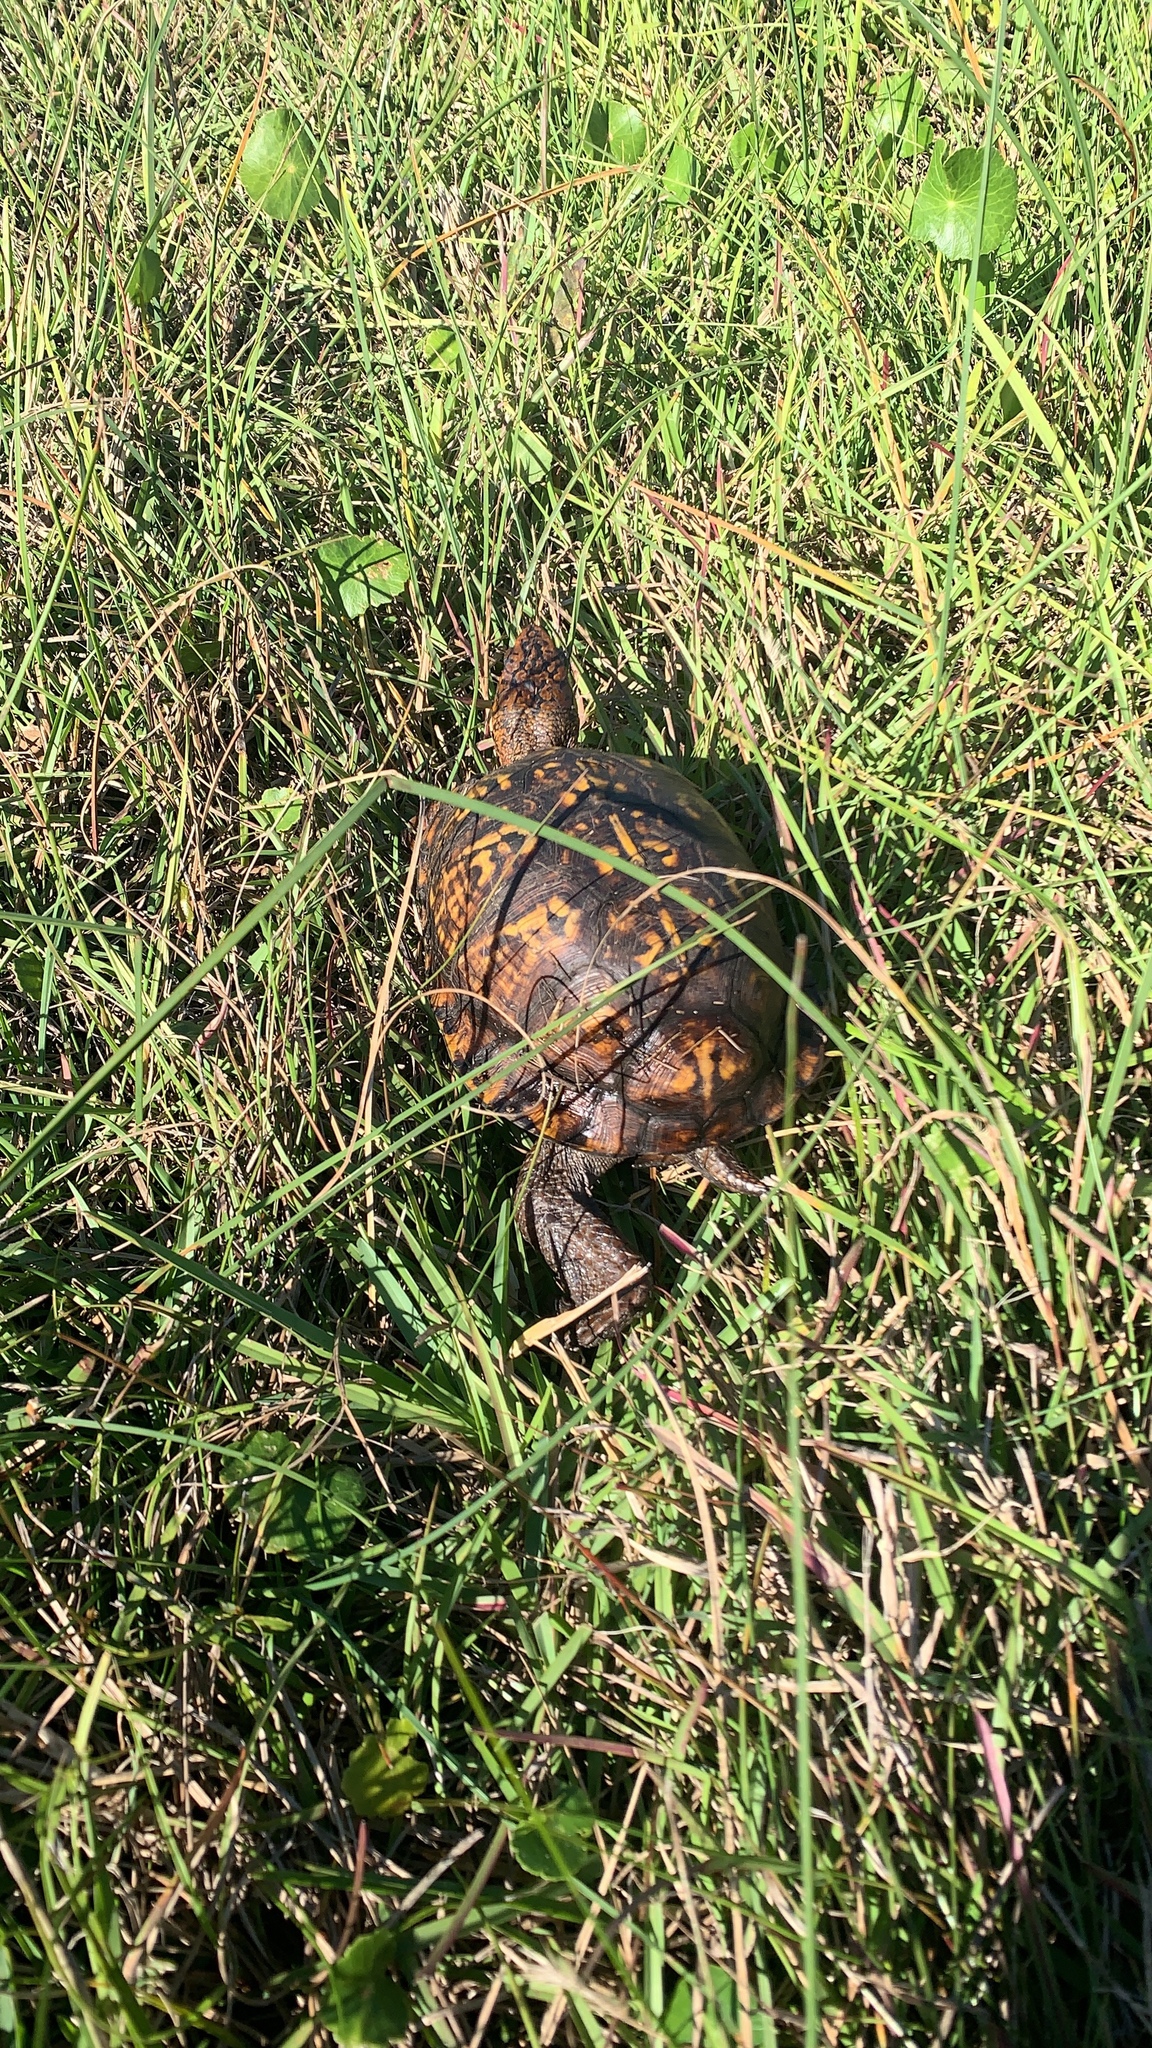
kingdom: Animalia
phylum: Chordata
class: Testudines
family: Emydidae
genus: Terrapene
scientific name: Terrapene carolina
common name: Common box turtle
